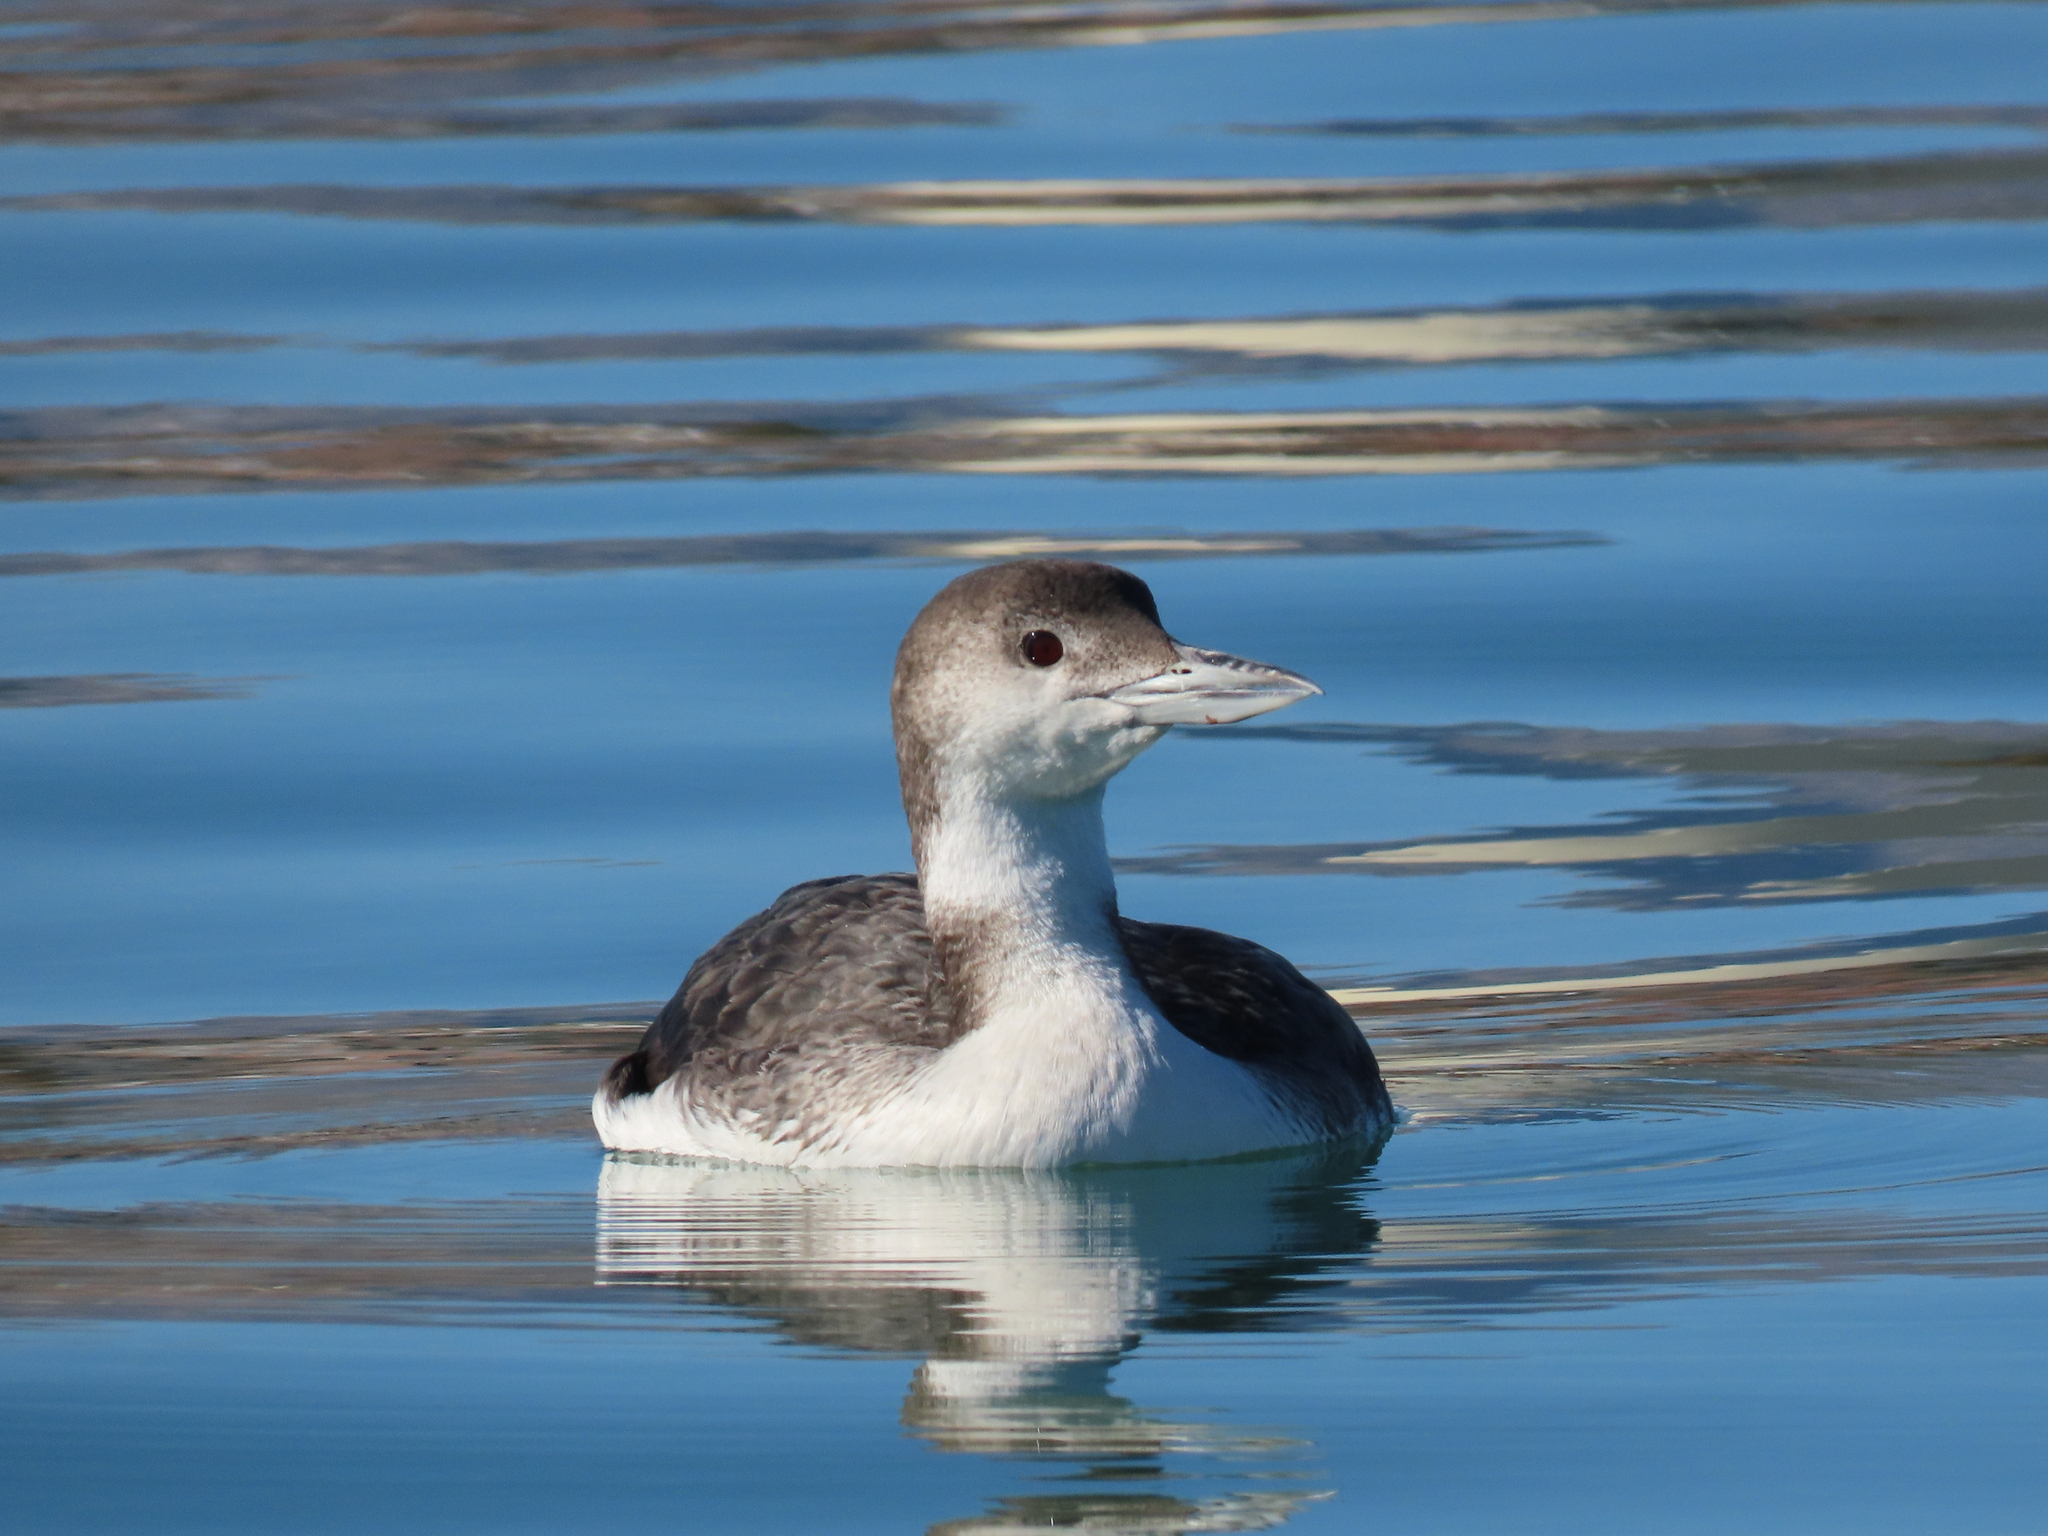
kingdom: Animalia
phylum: Chordata
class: Aves
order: Gaviiformes
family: Gaviidae
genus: Gavia
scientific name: Gavia immer
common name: Common loon
